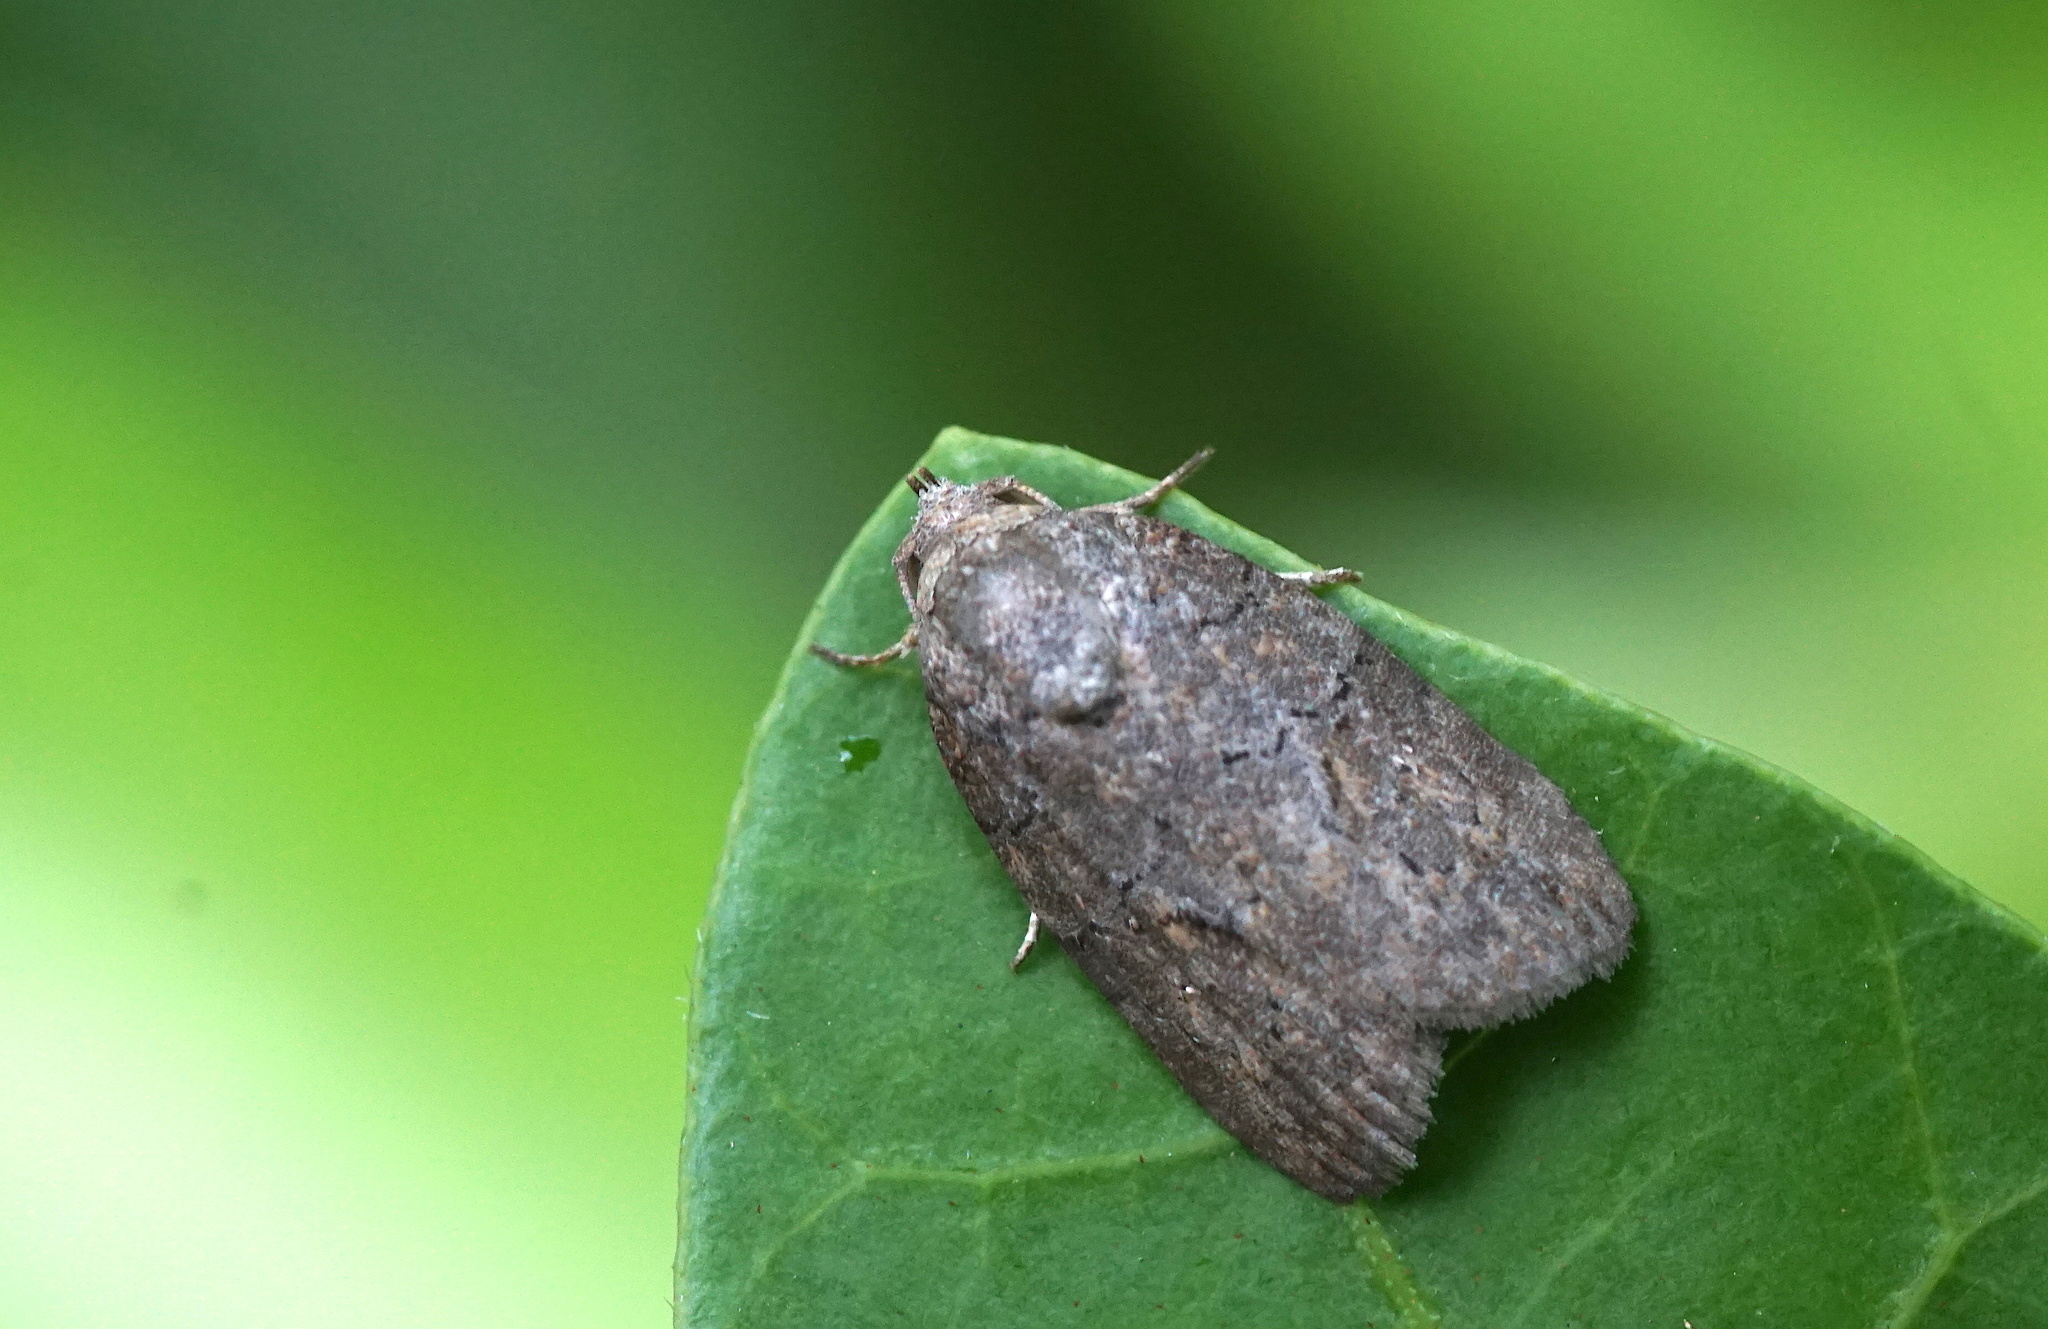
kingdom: Animalia
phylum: Arthropoda
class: Insecta
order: Lepidoptera
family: Nolidae
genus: Garella
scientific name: Garella nilotica
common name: Black-olive caterpillar moth
